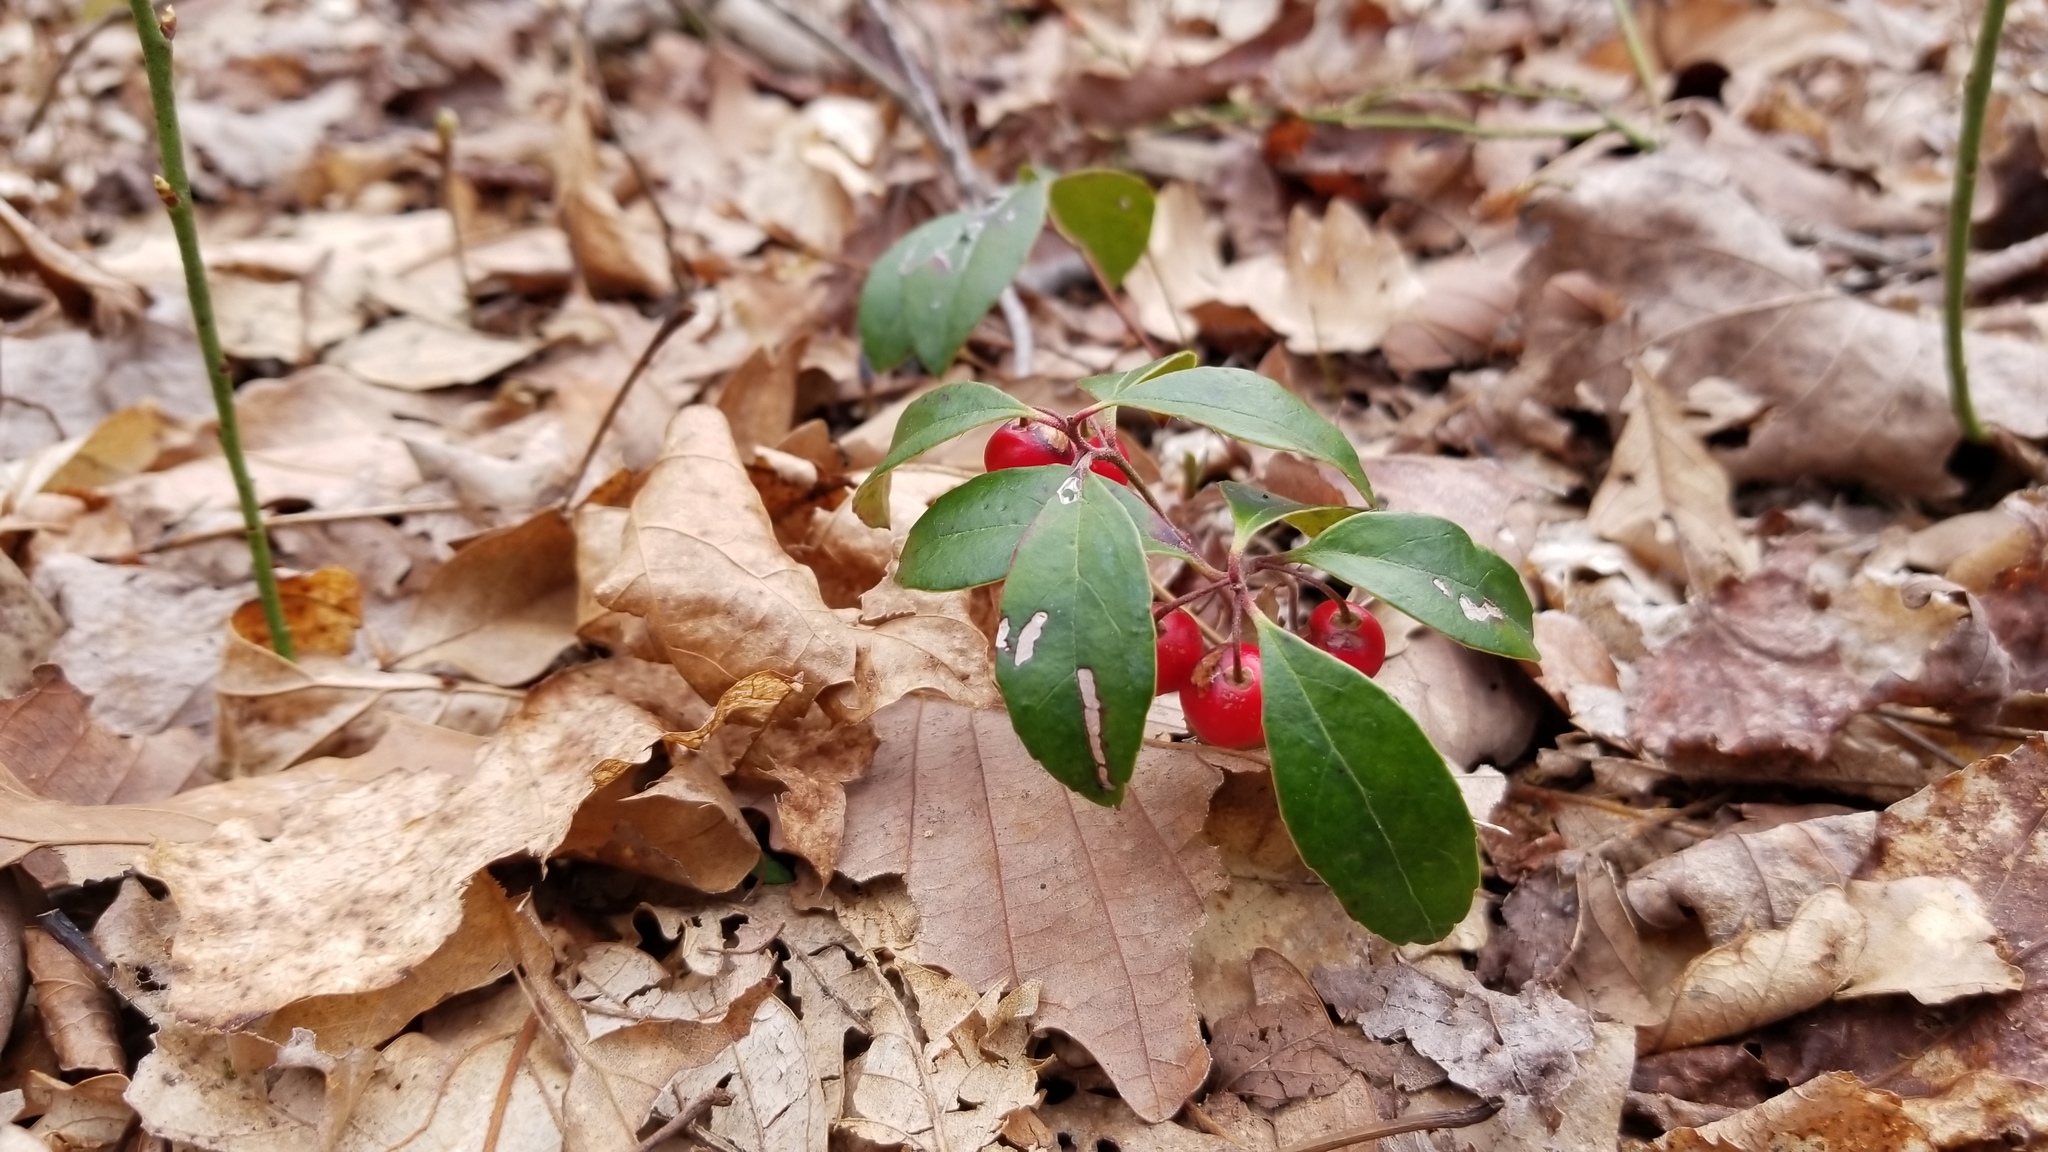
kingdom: Plantae
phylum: Tracheophyta
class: Magnoliopsida
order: Ericales
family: Ericaceae
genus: Gaultheria
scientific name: Gaultheria procumbens
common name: Checkerberry
